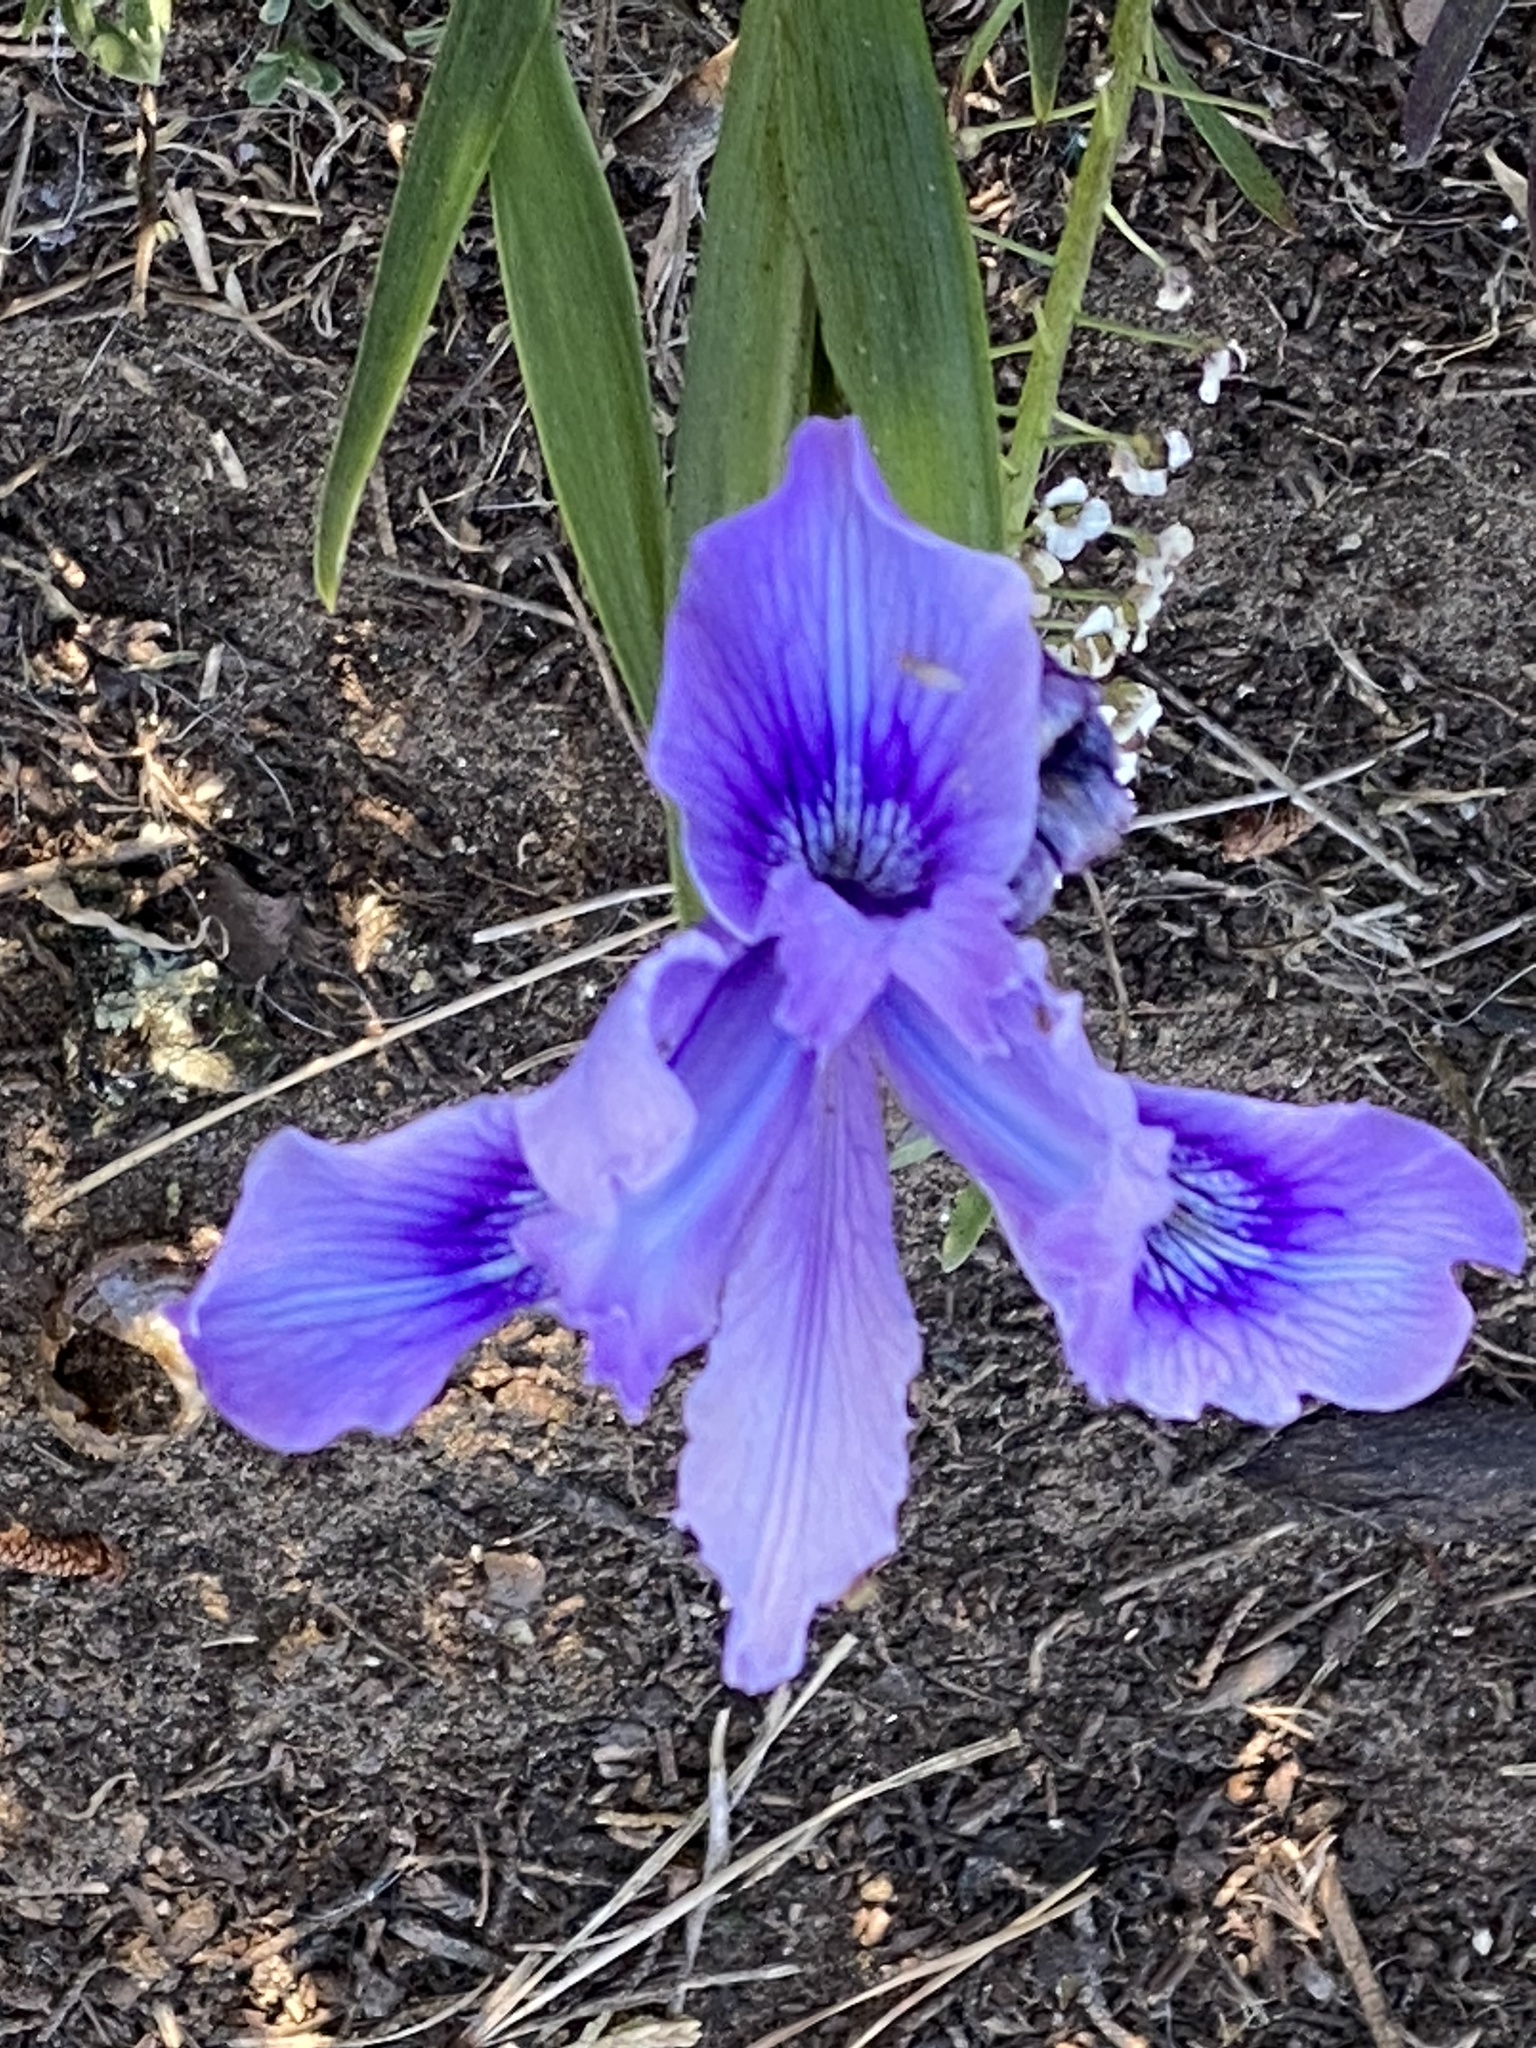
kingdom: Plantae
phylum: Tracheophyta
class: Liliopsida
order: Asparagales
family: Iridaceae
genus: Iris
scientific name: Iris douglasiana
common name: Marin iris
